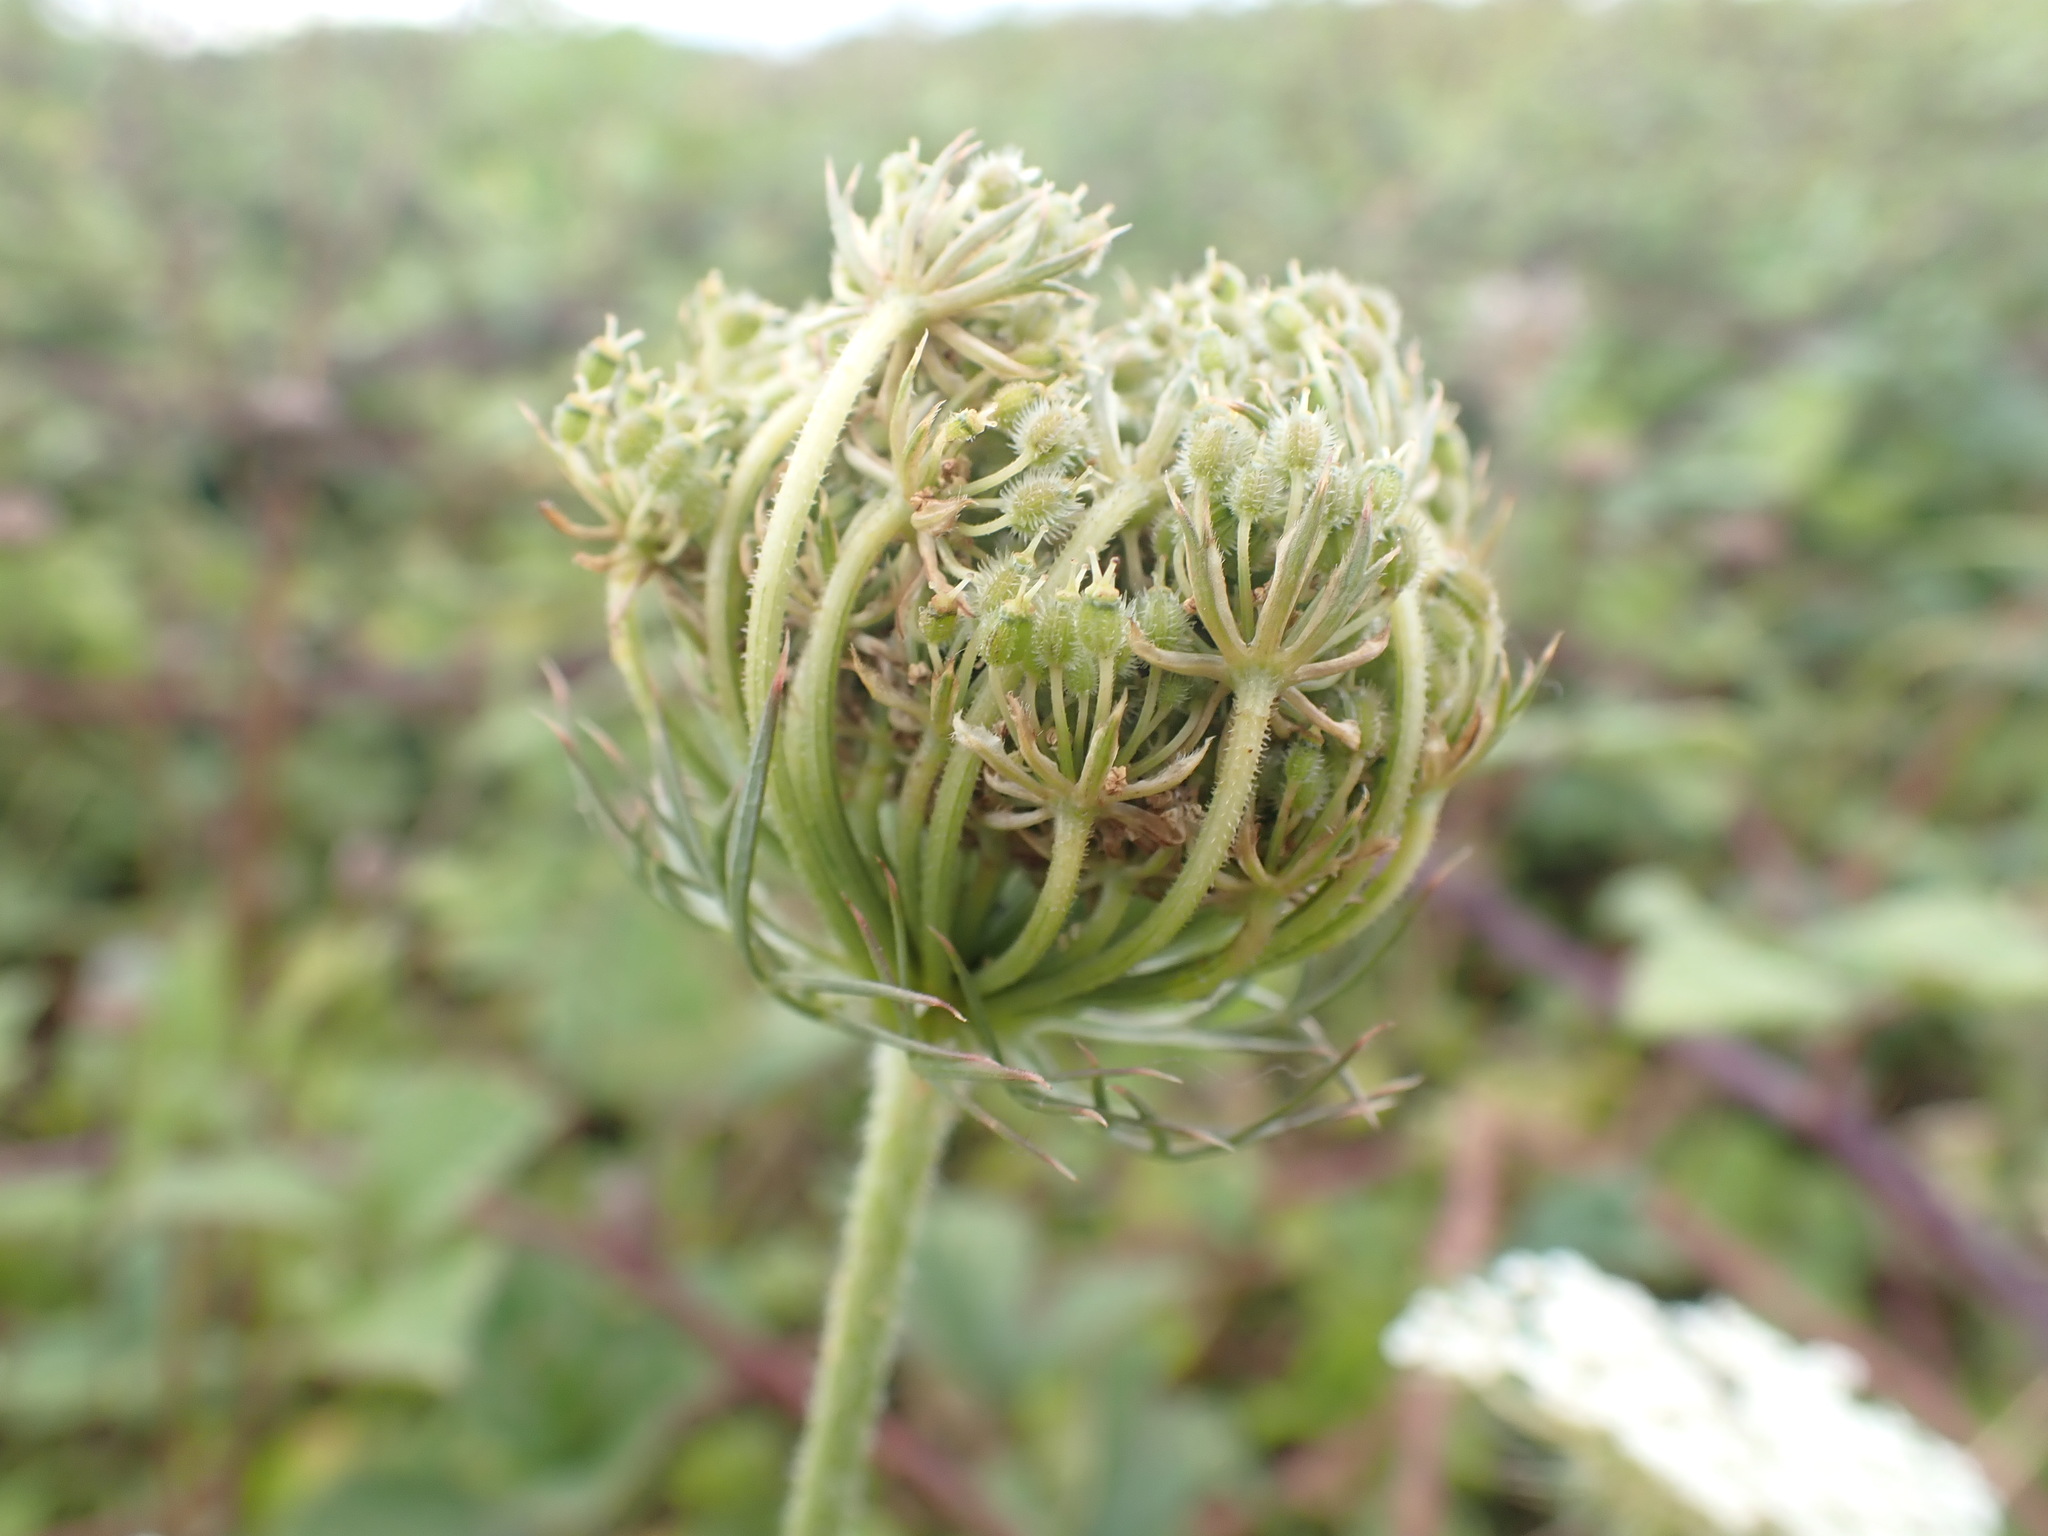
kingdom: Plantae
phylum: Tracheophyta
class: Magnoliopsida
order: Apiales
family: Apiaceae
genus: Daucus
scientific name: Daucus carota
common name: Wild carrot
